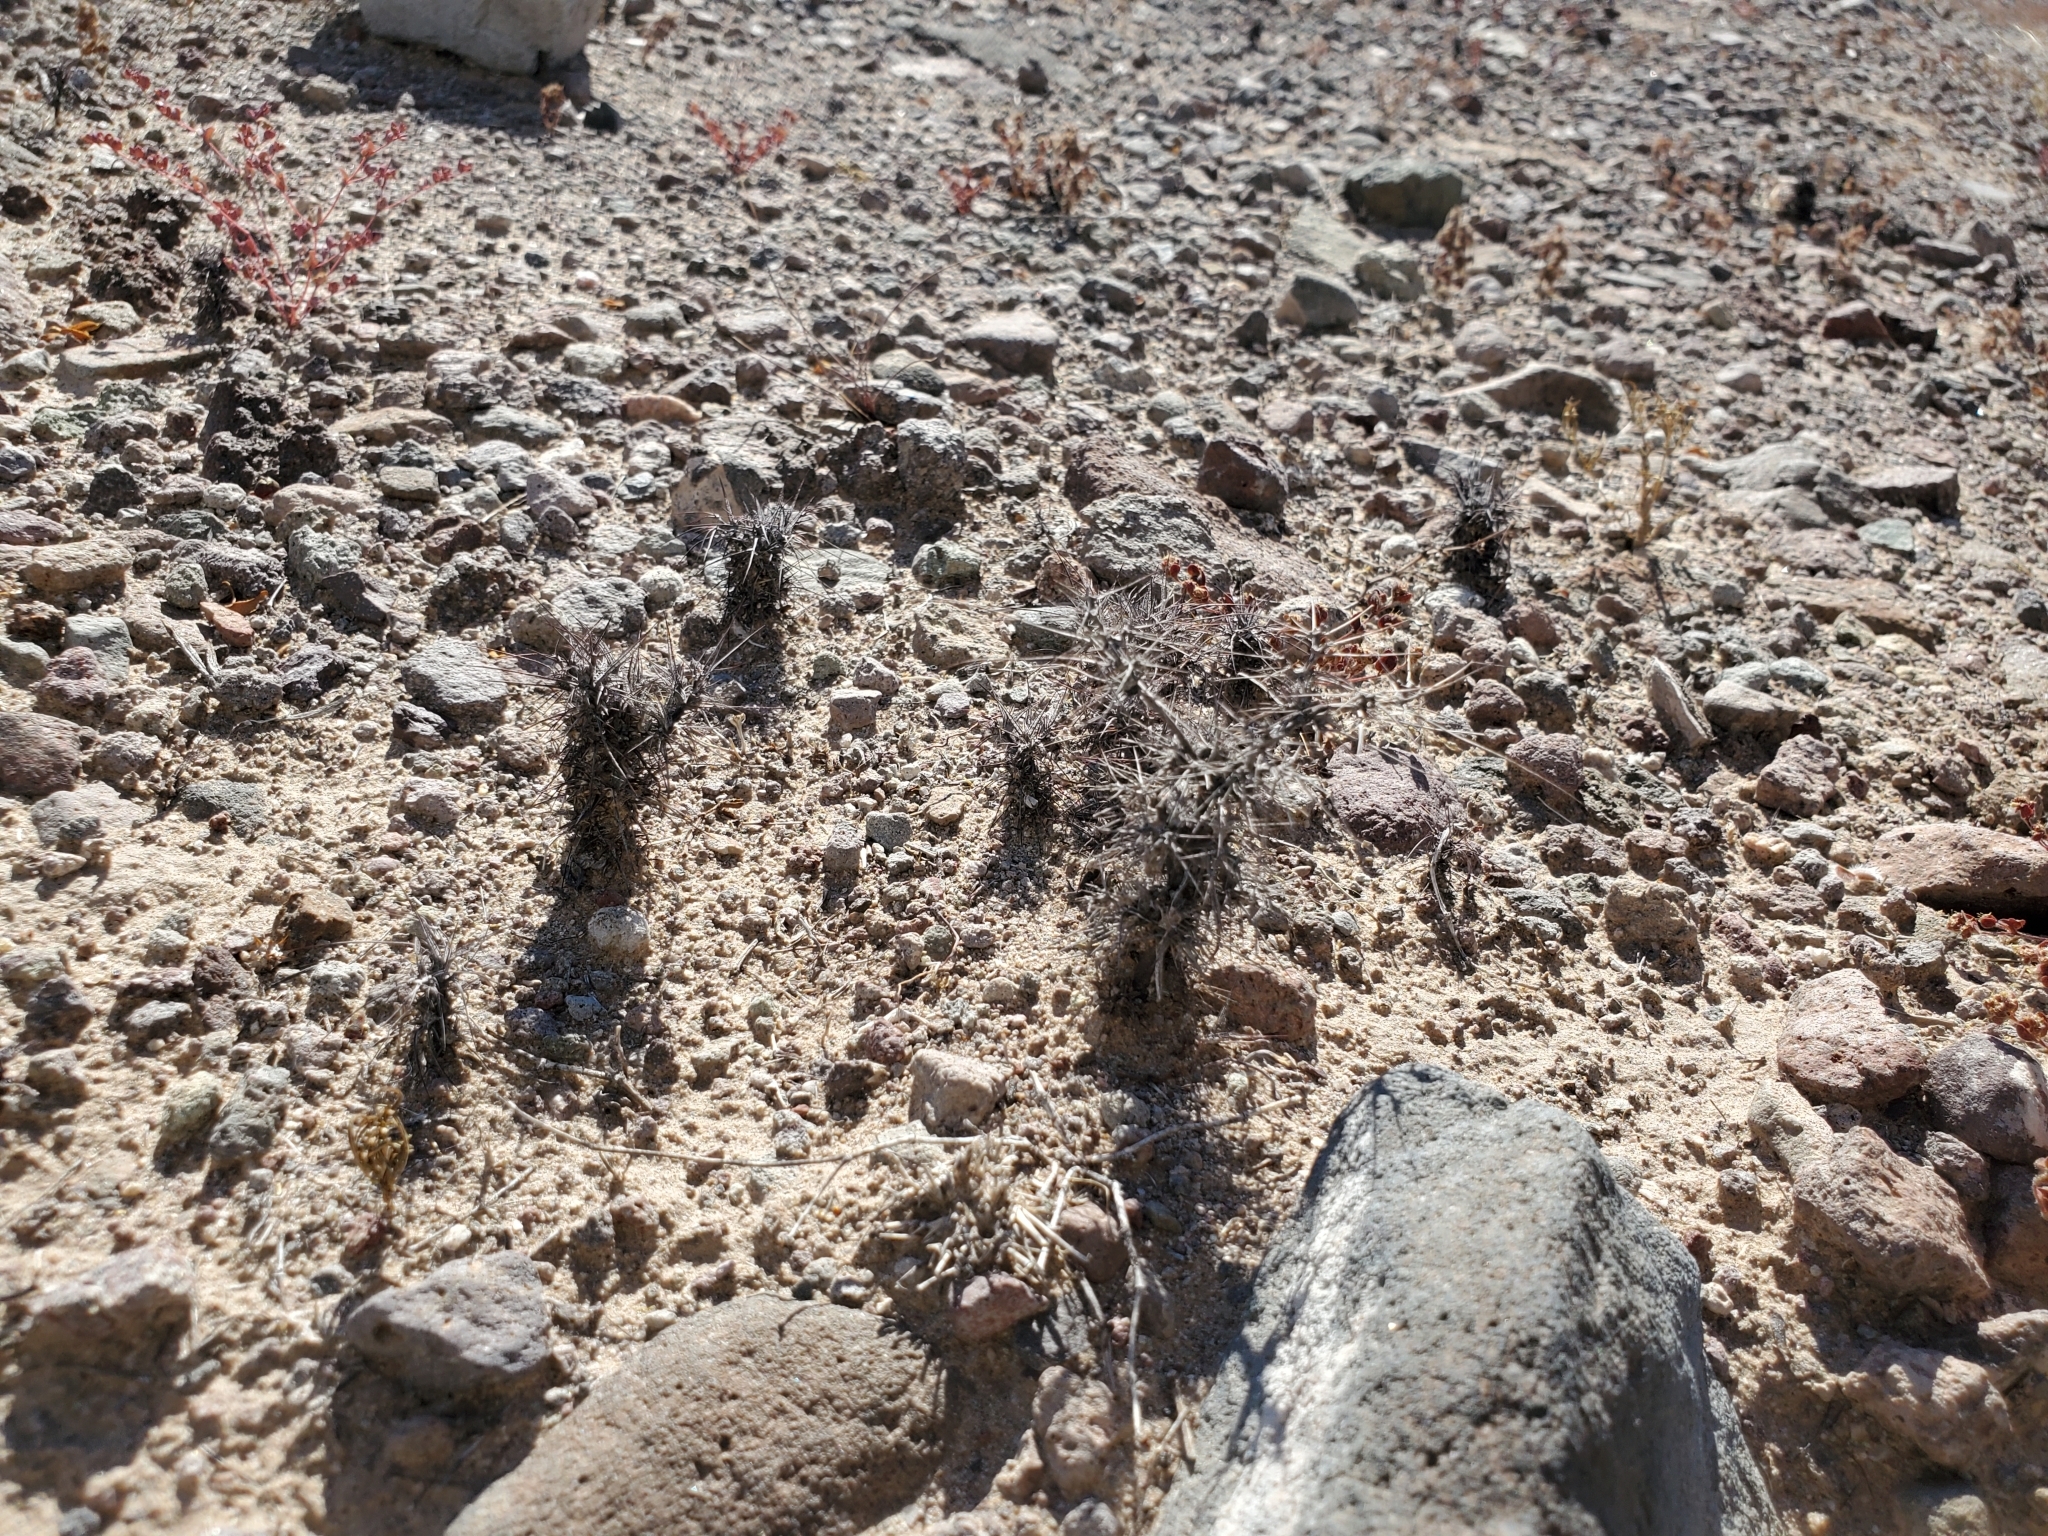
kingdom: Plantae
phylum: Tracheophyta
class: Magnoliopsida
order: Caryophyllales
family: Polygonaceae
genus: Chorizanthe
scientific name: Chorizanthe rigida
